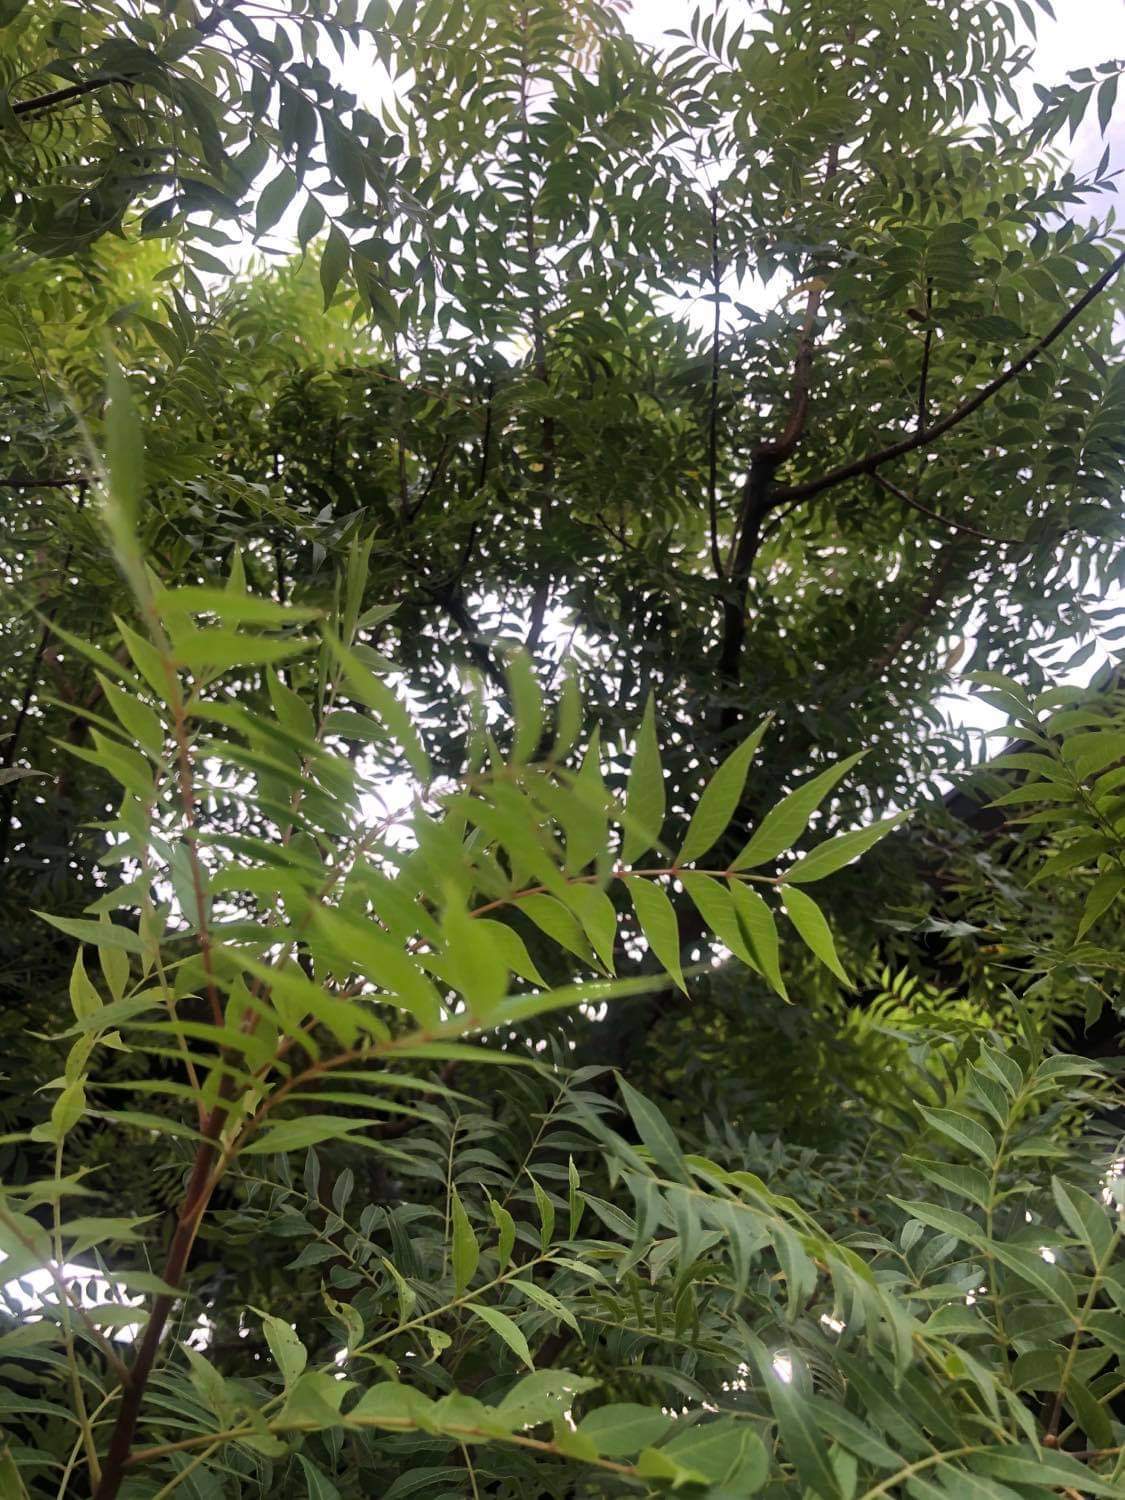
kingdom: Plantae
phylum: Tracheophyta
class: Magnoliopsida
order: Sapindales
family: Anacardiaceae
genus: Pistacia
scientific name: Pistacia chinensis
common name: Chinese pistache
